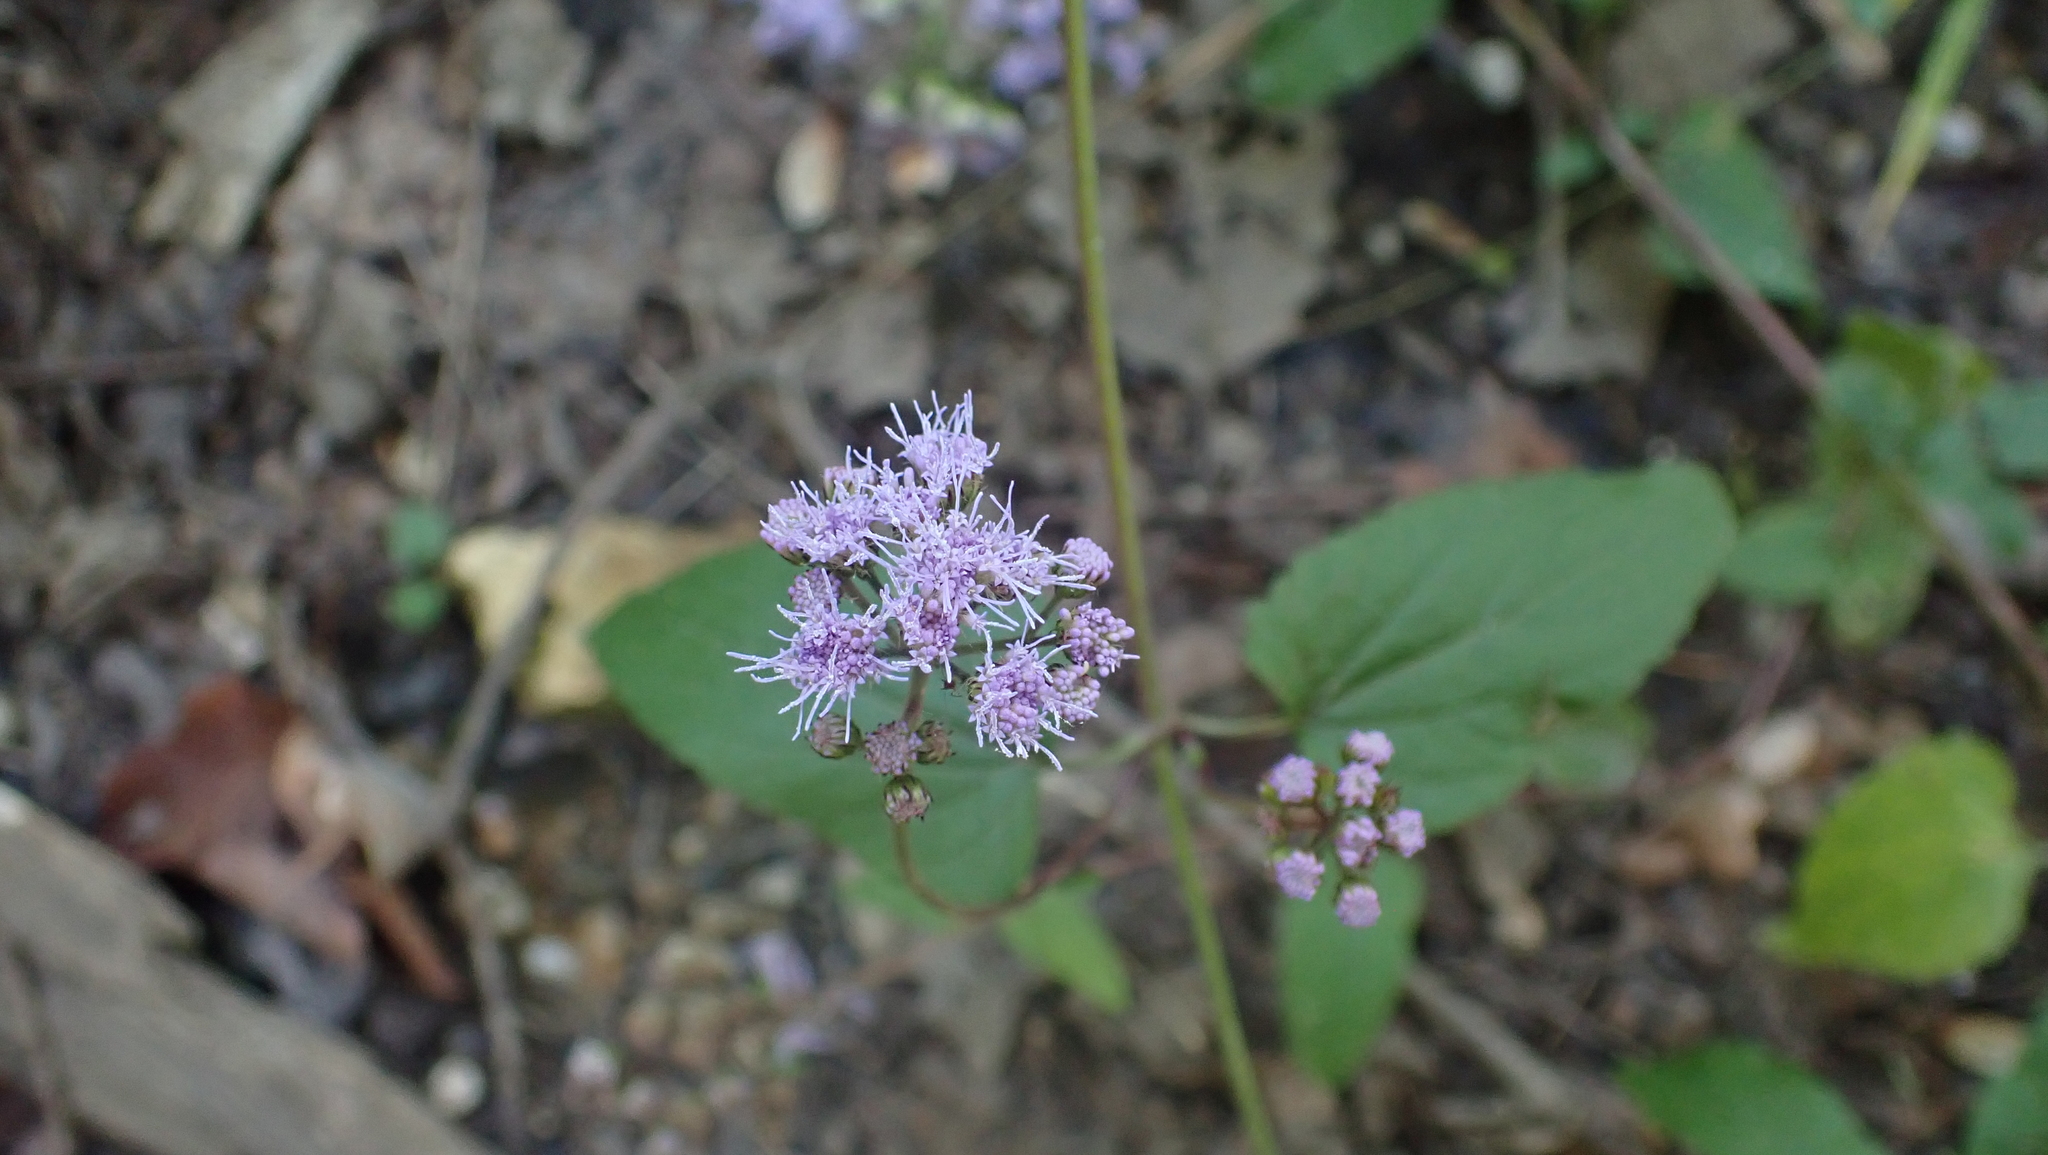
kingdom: Plantae
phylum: Tracheophyta
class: Magnoliopsida
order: Asterales
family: Asteraceae
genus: Conoclinium
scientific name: Conoclinium coelestinum
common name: Blue mistflower
